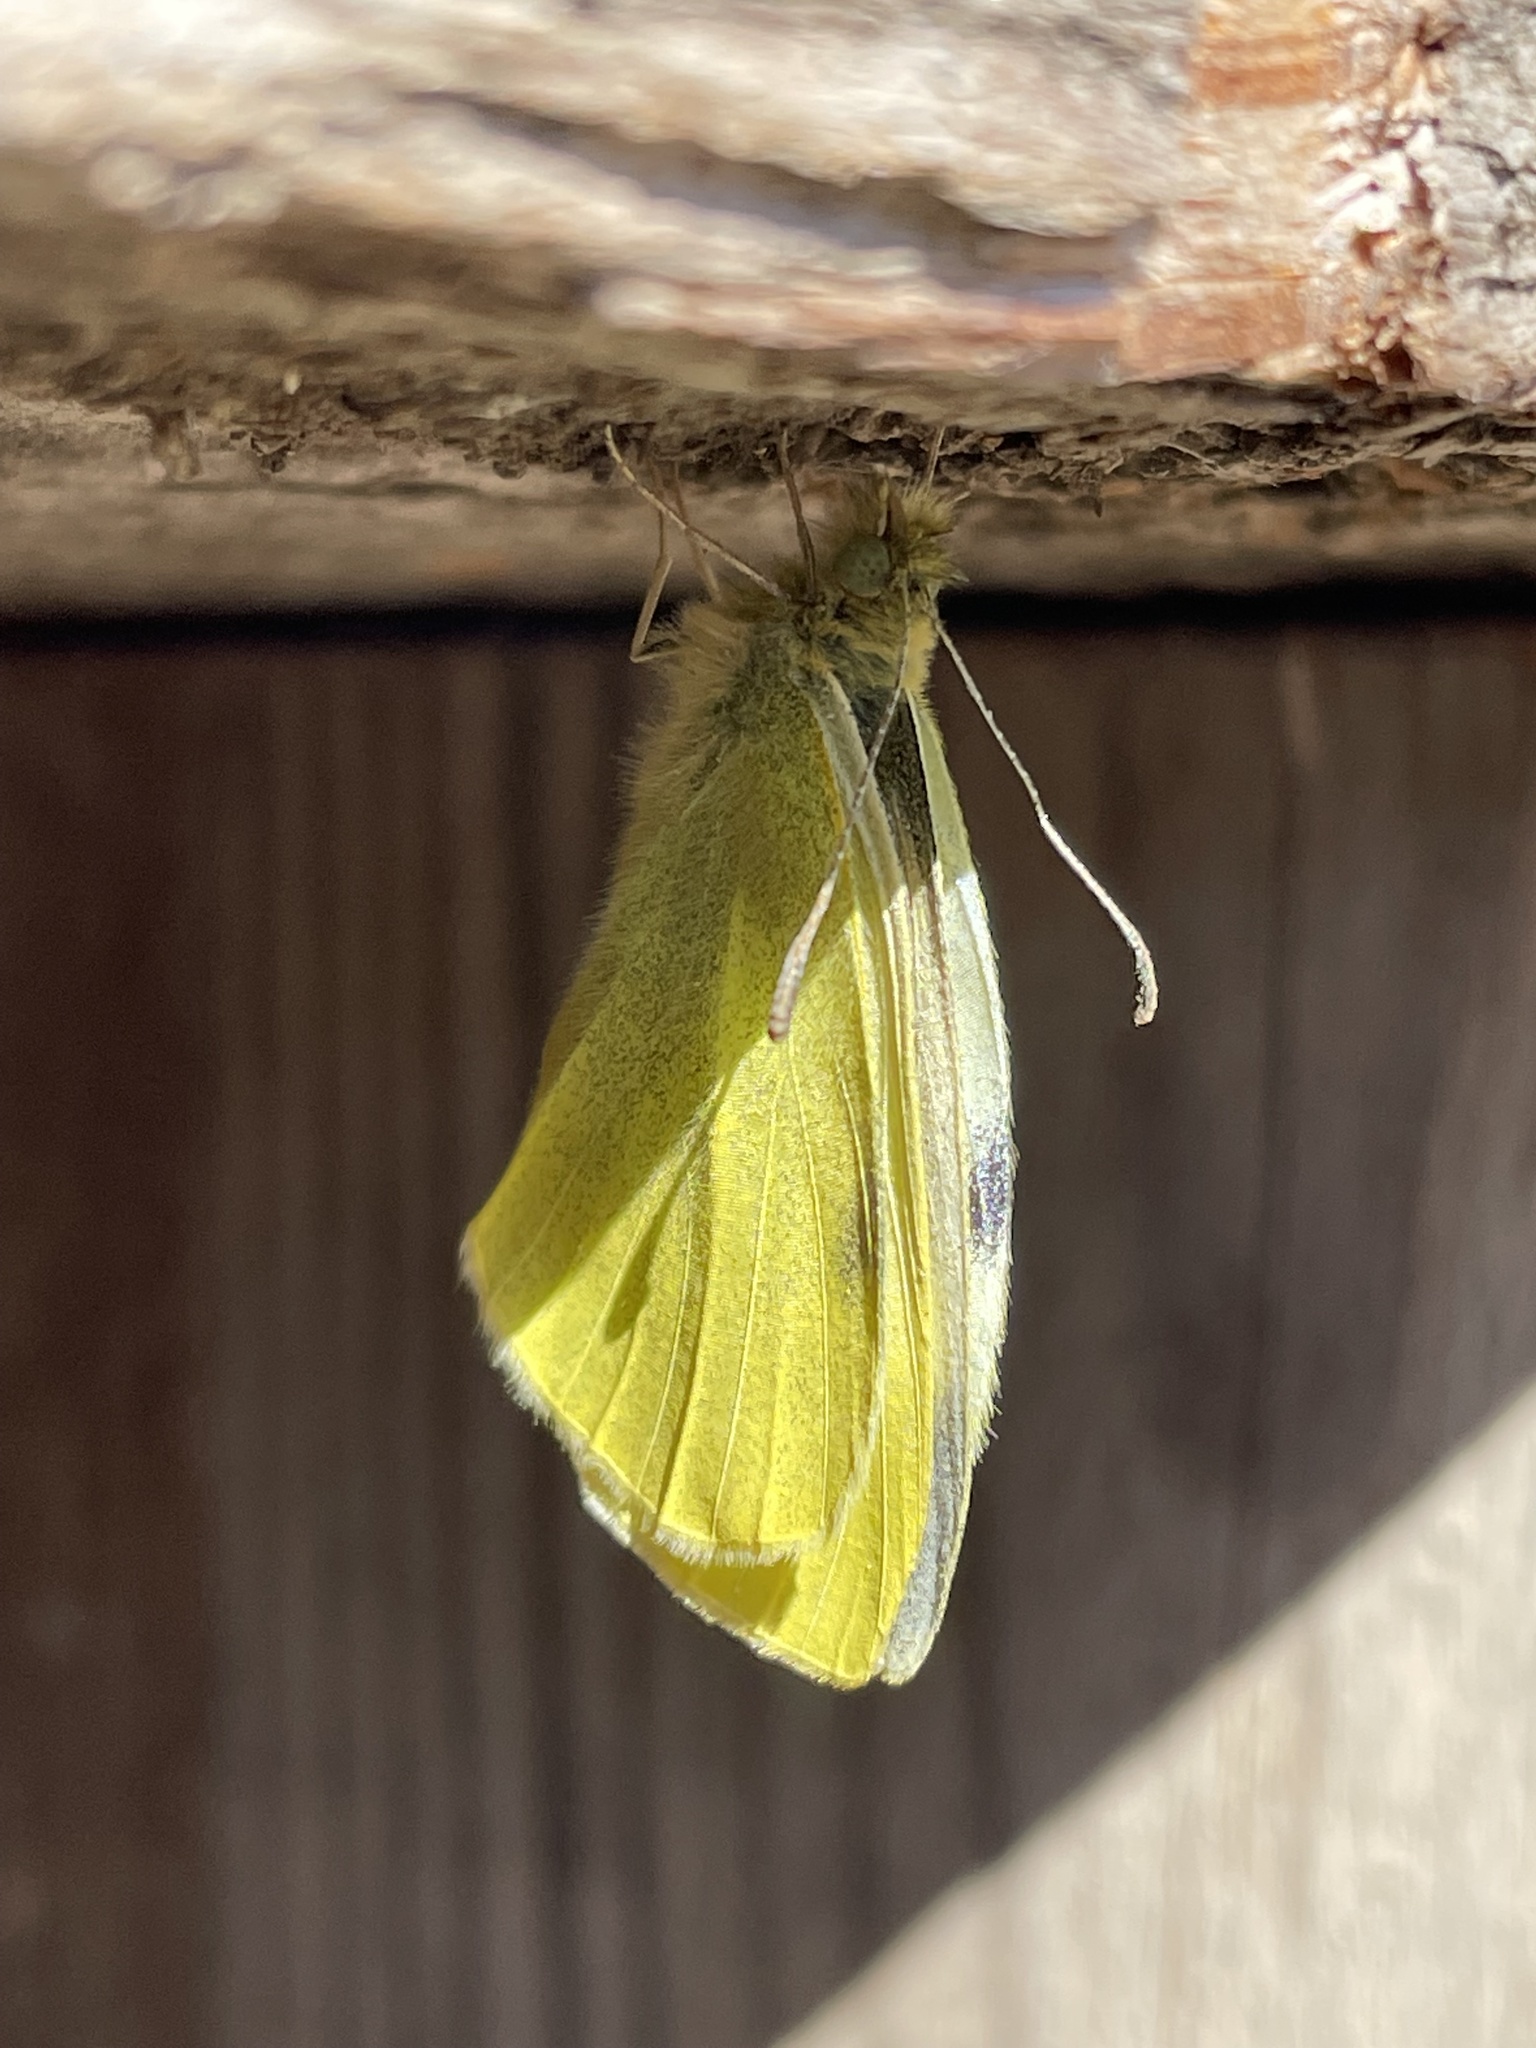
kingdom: Animalia
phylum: Arthropoda
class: Insecta
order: Lepidoptera
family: Pieridae
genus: Pieris
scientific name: Pieris rapae
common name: Small white
